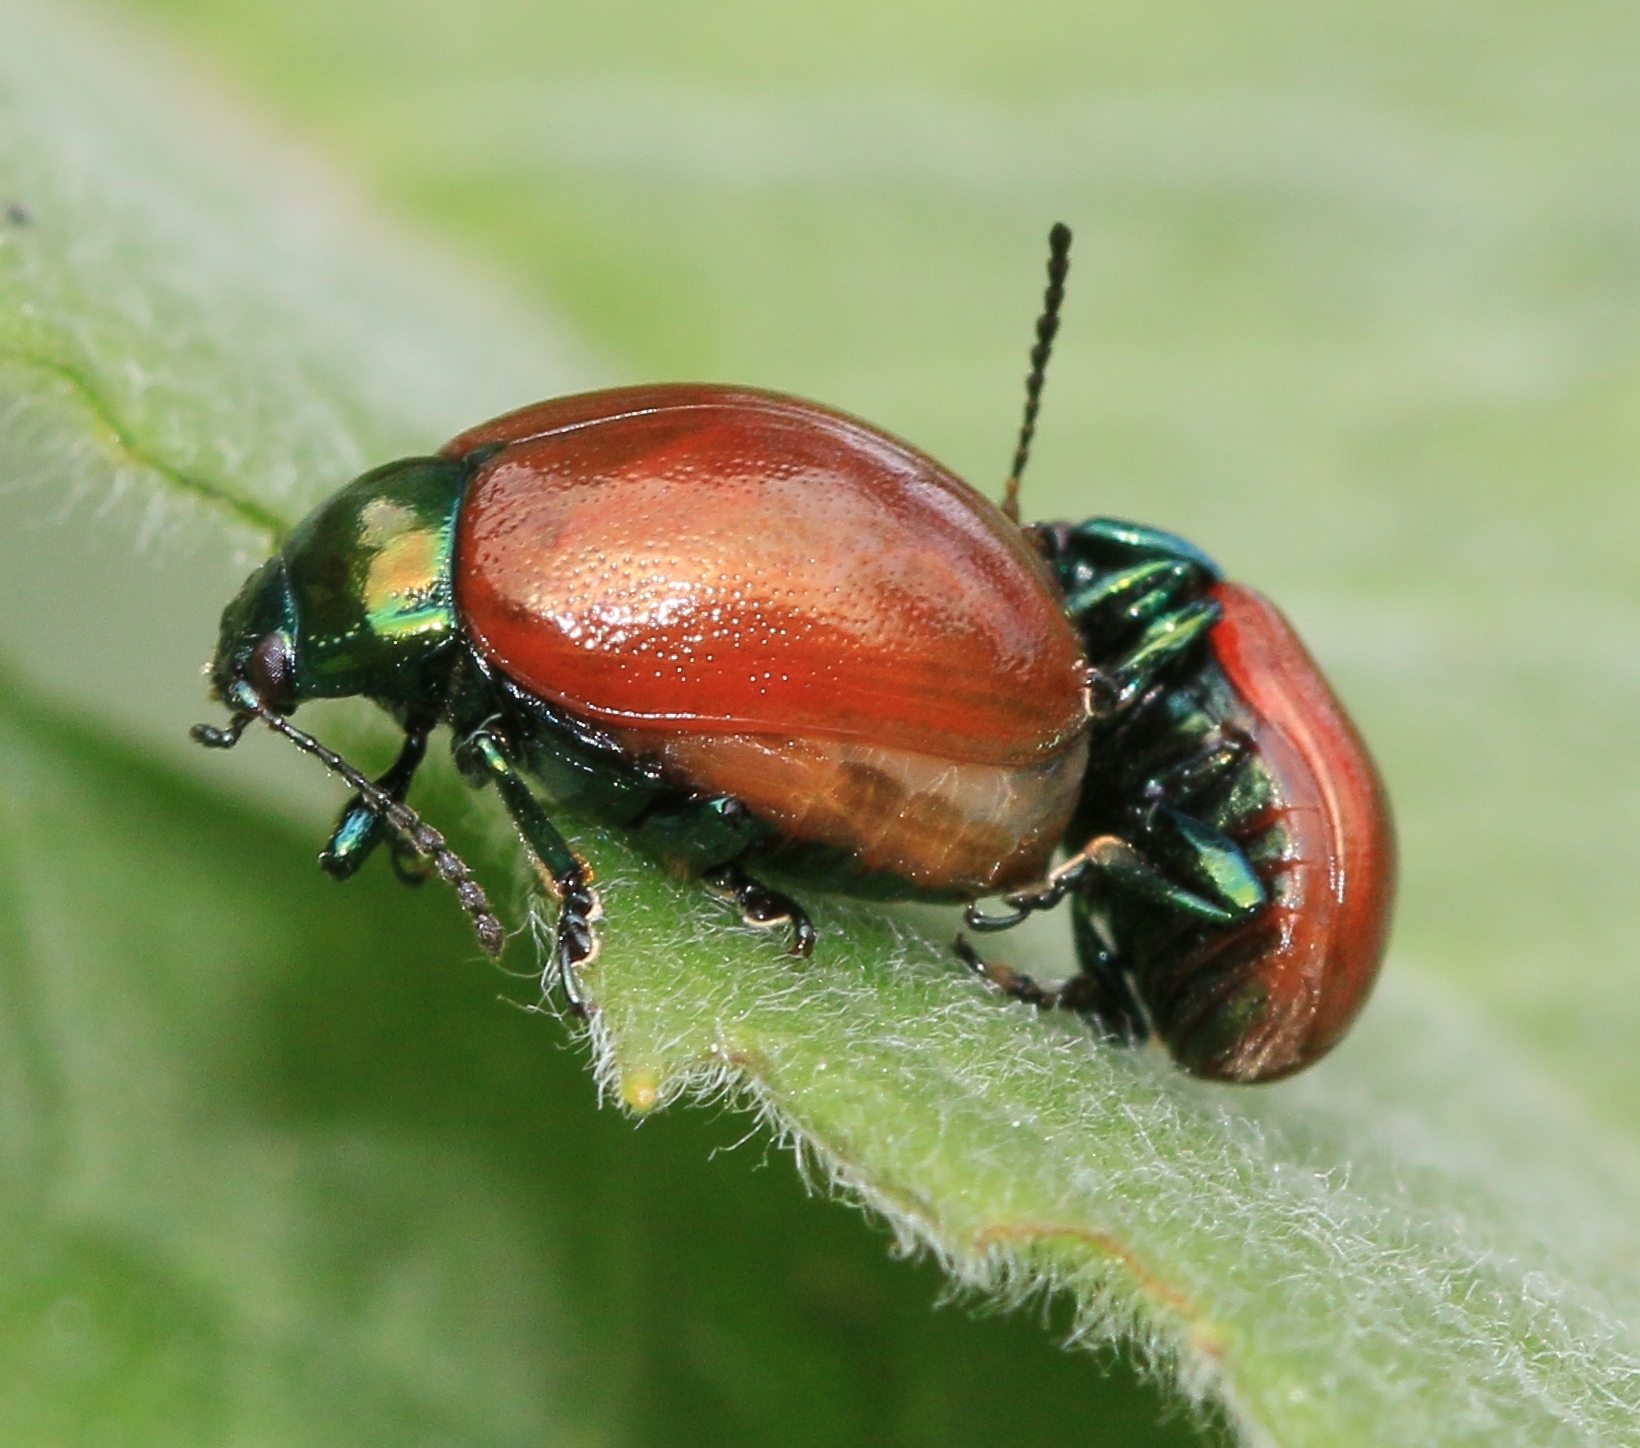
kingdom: Animalia
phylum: Arthropoda
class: Insecta
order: Coleoptera
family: Chrysomelidae
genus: Chrysomela
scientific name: Chrysomela polita
